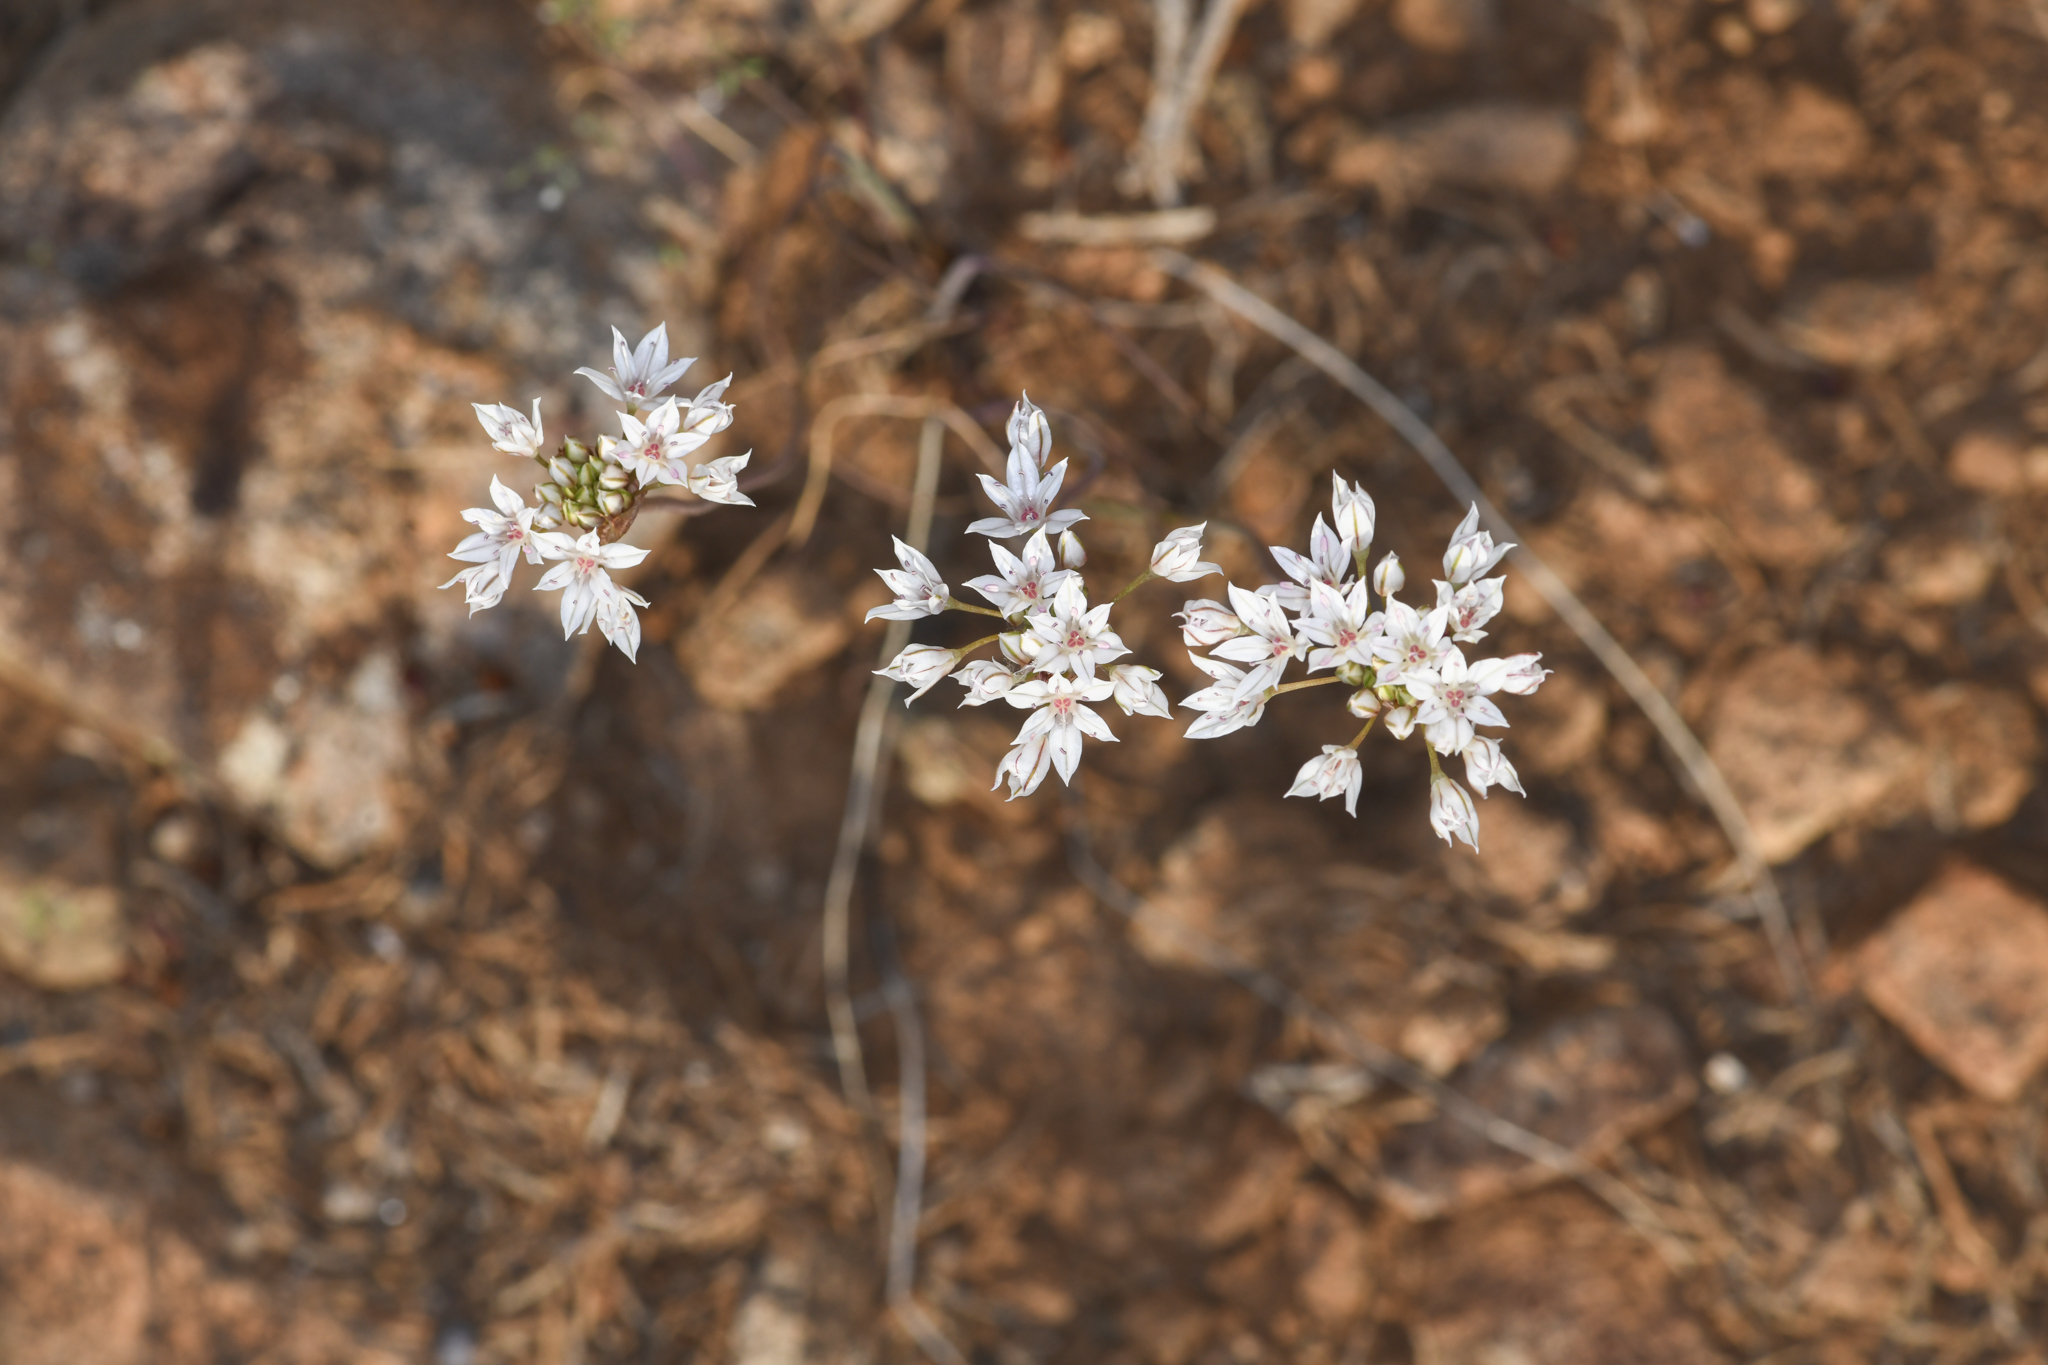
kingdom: Plantae
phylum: Tracheophyta
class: Liliopsida
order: Asparagales
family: Amaryllidaceae
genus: Allium
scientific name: Allium lacunosum
